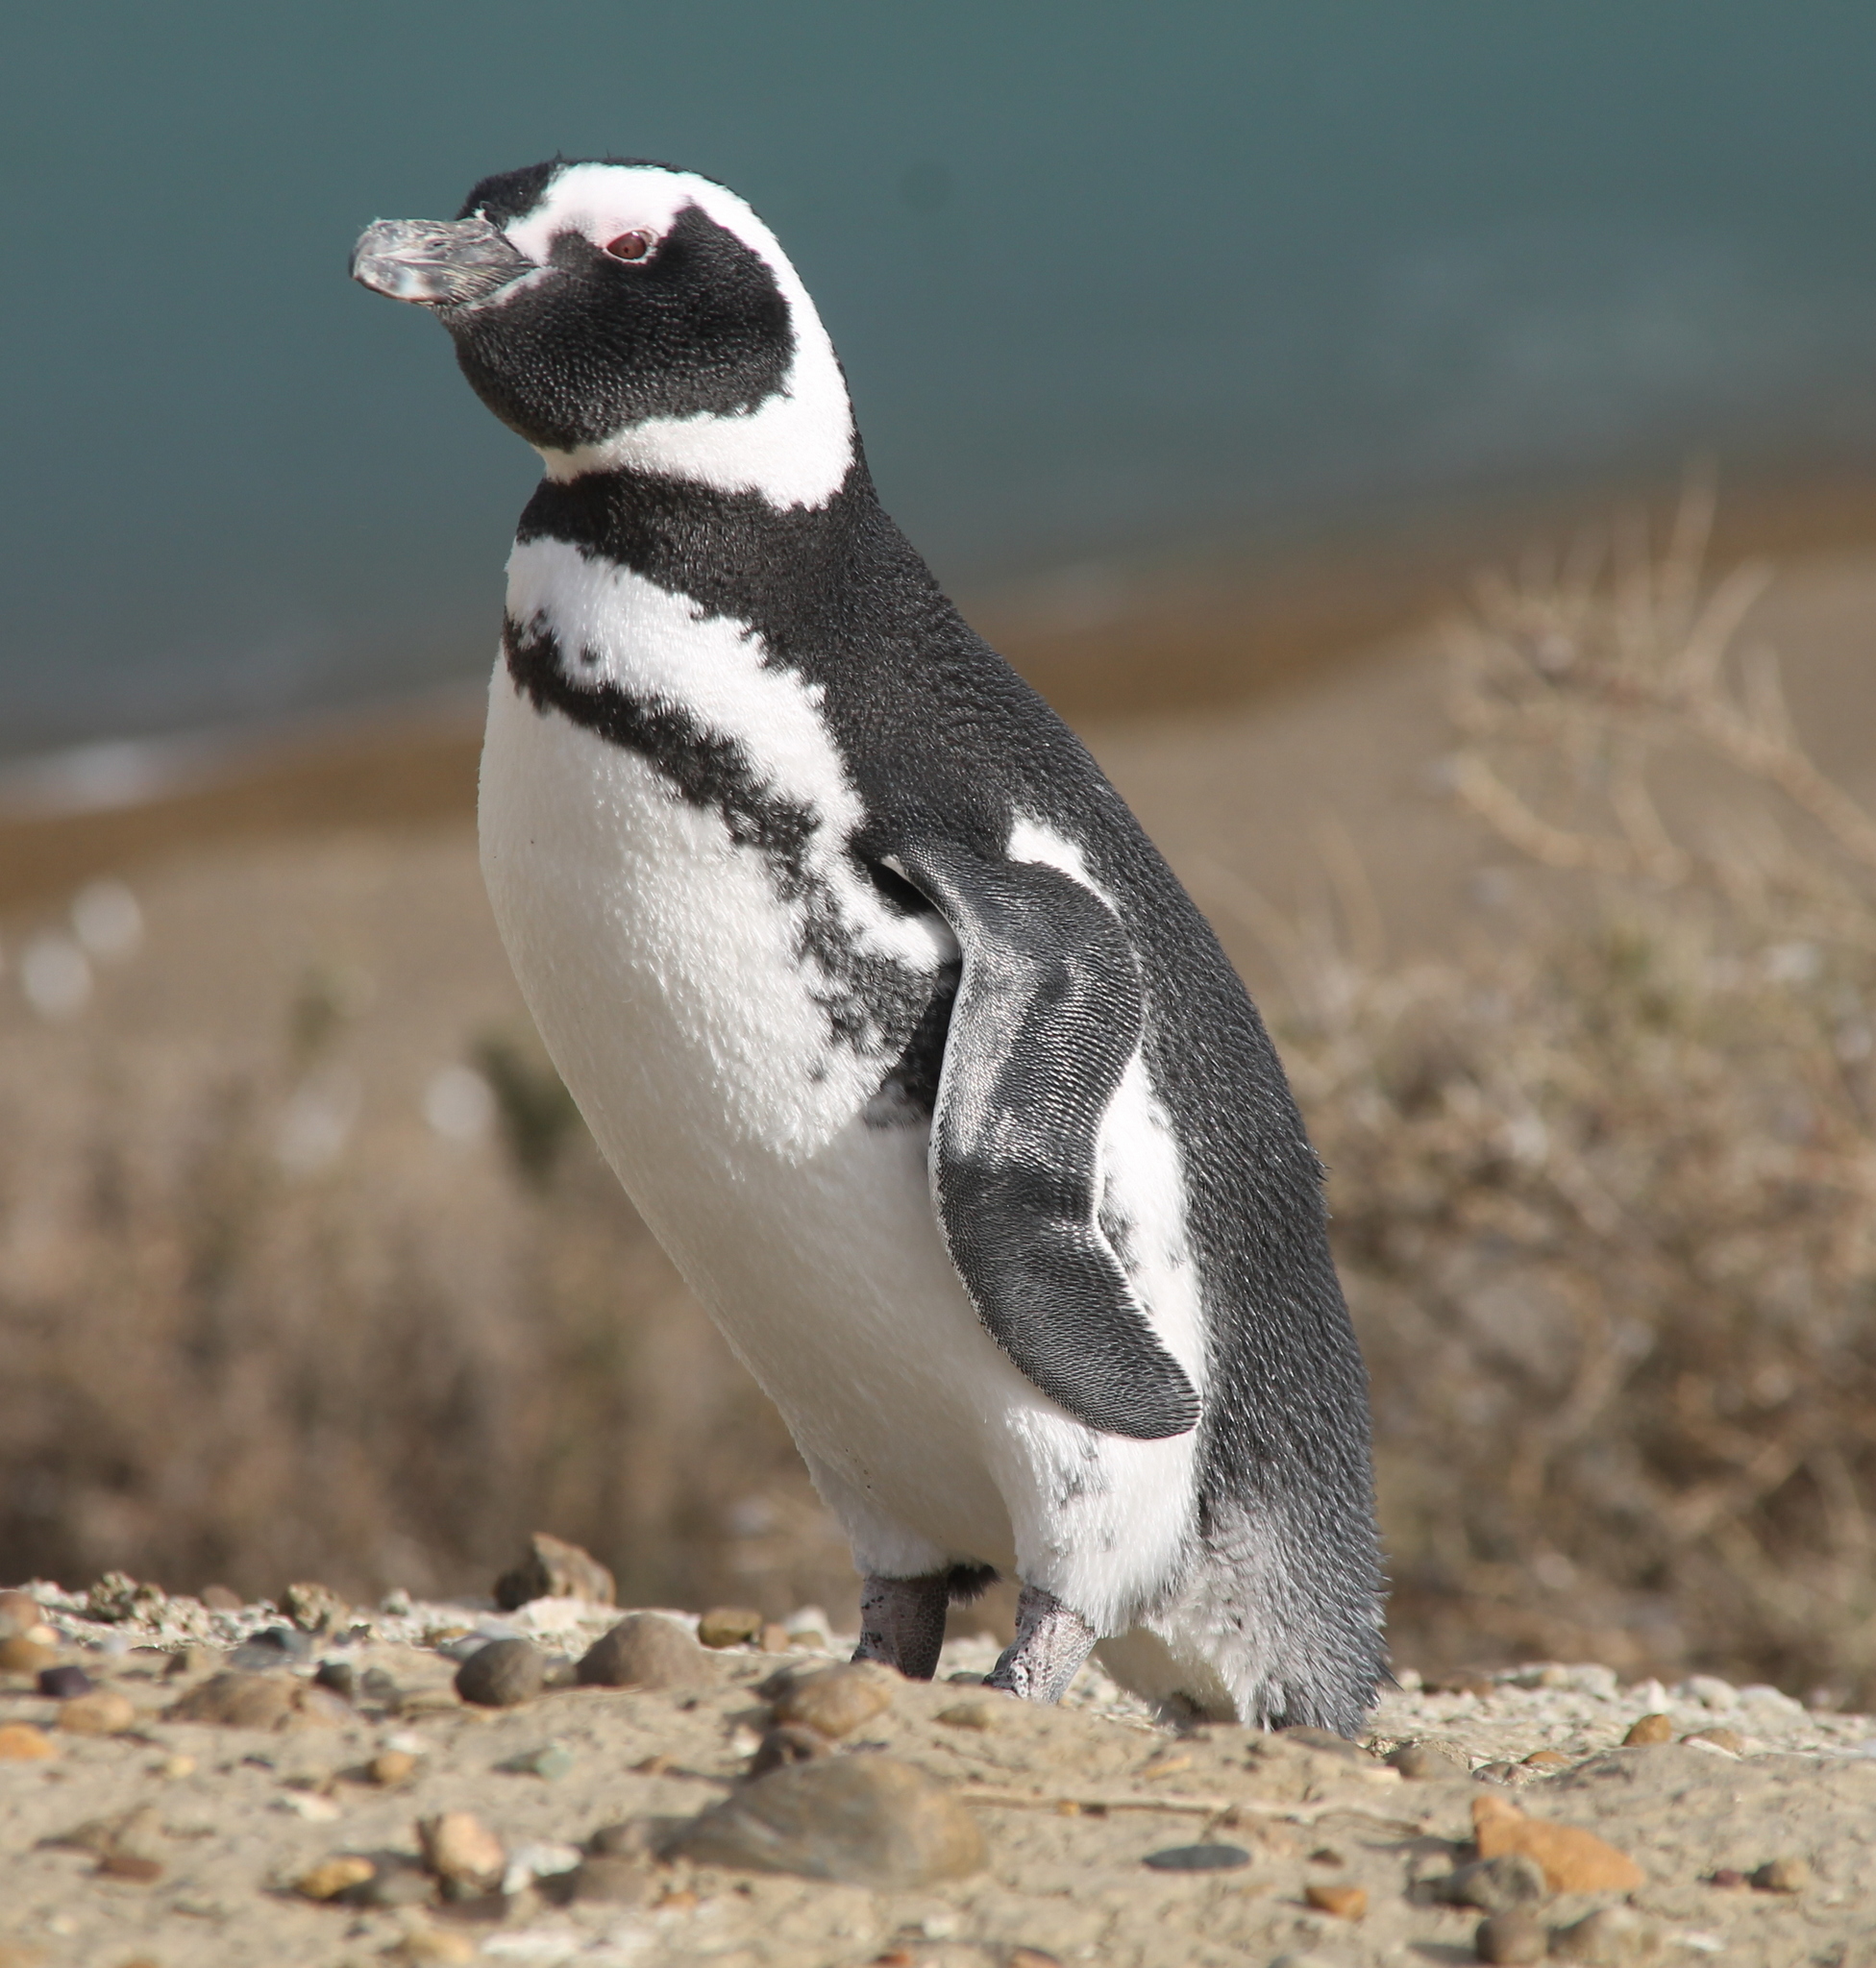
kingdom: Animalia
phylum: Chordata
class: Aves
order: Sphenisciformes
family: Spheniscidae
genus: Spheniscus
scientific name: Spheniscus magellanicus
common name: Magellanic penguin
